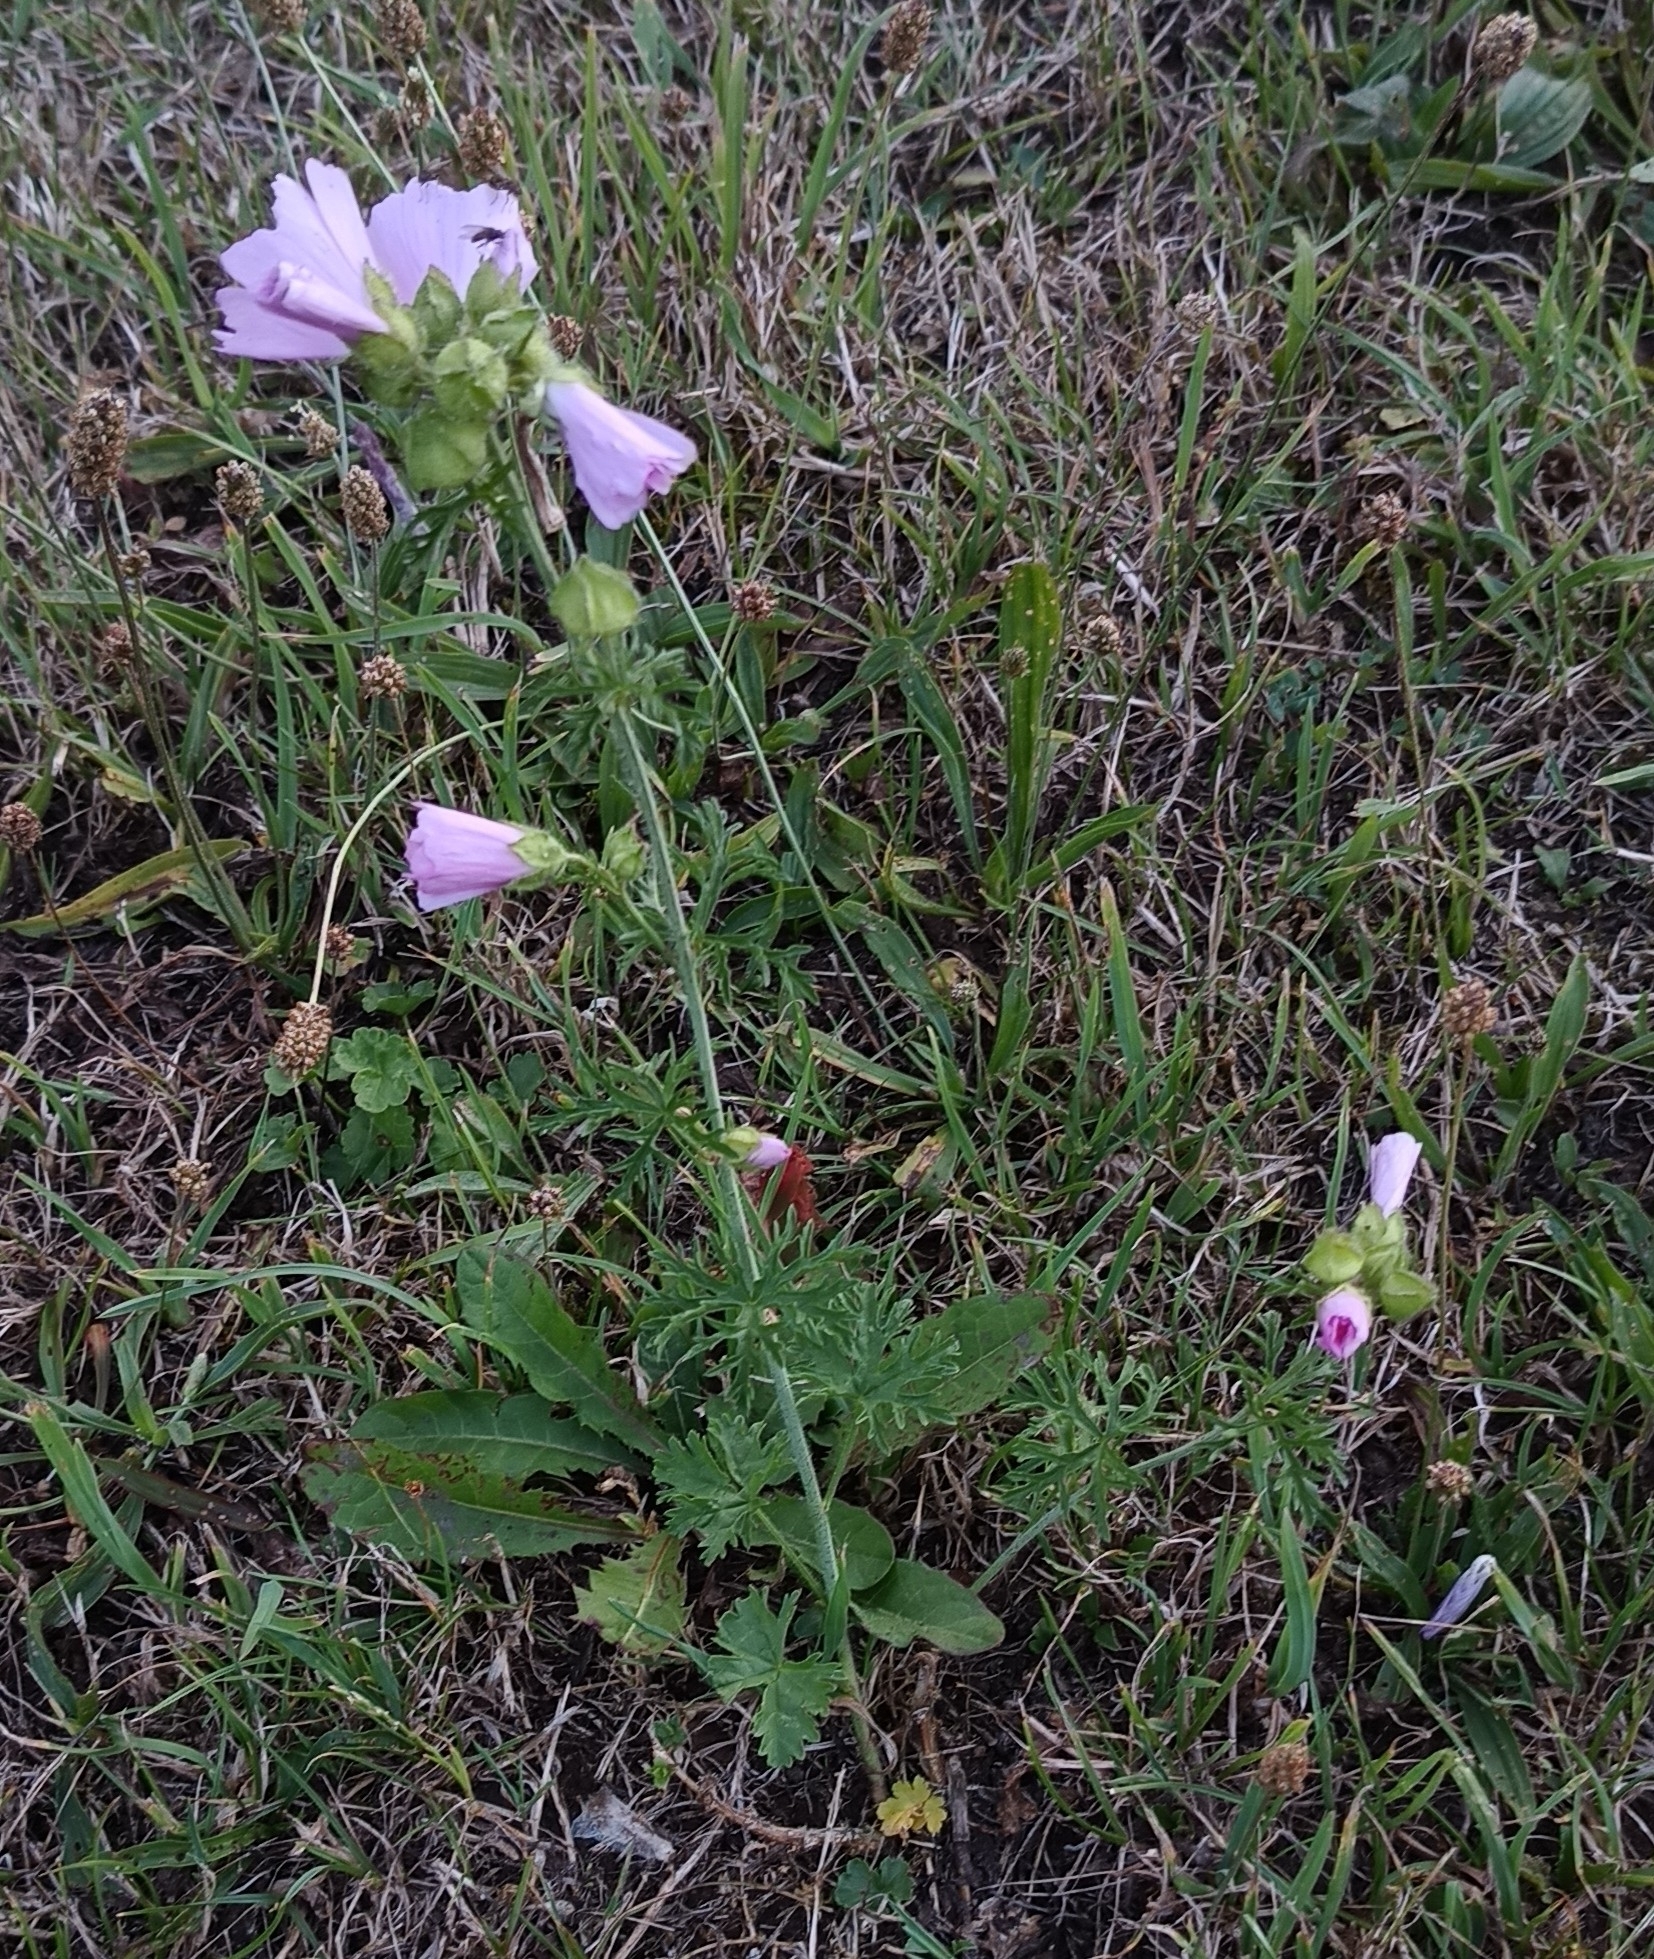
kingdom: Plantae
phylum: Tracheophyta
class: Magnoliopsida
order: Malvales
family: Malvaceae
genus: Malva
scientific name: Malva moschata
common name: Musk mallow
